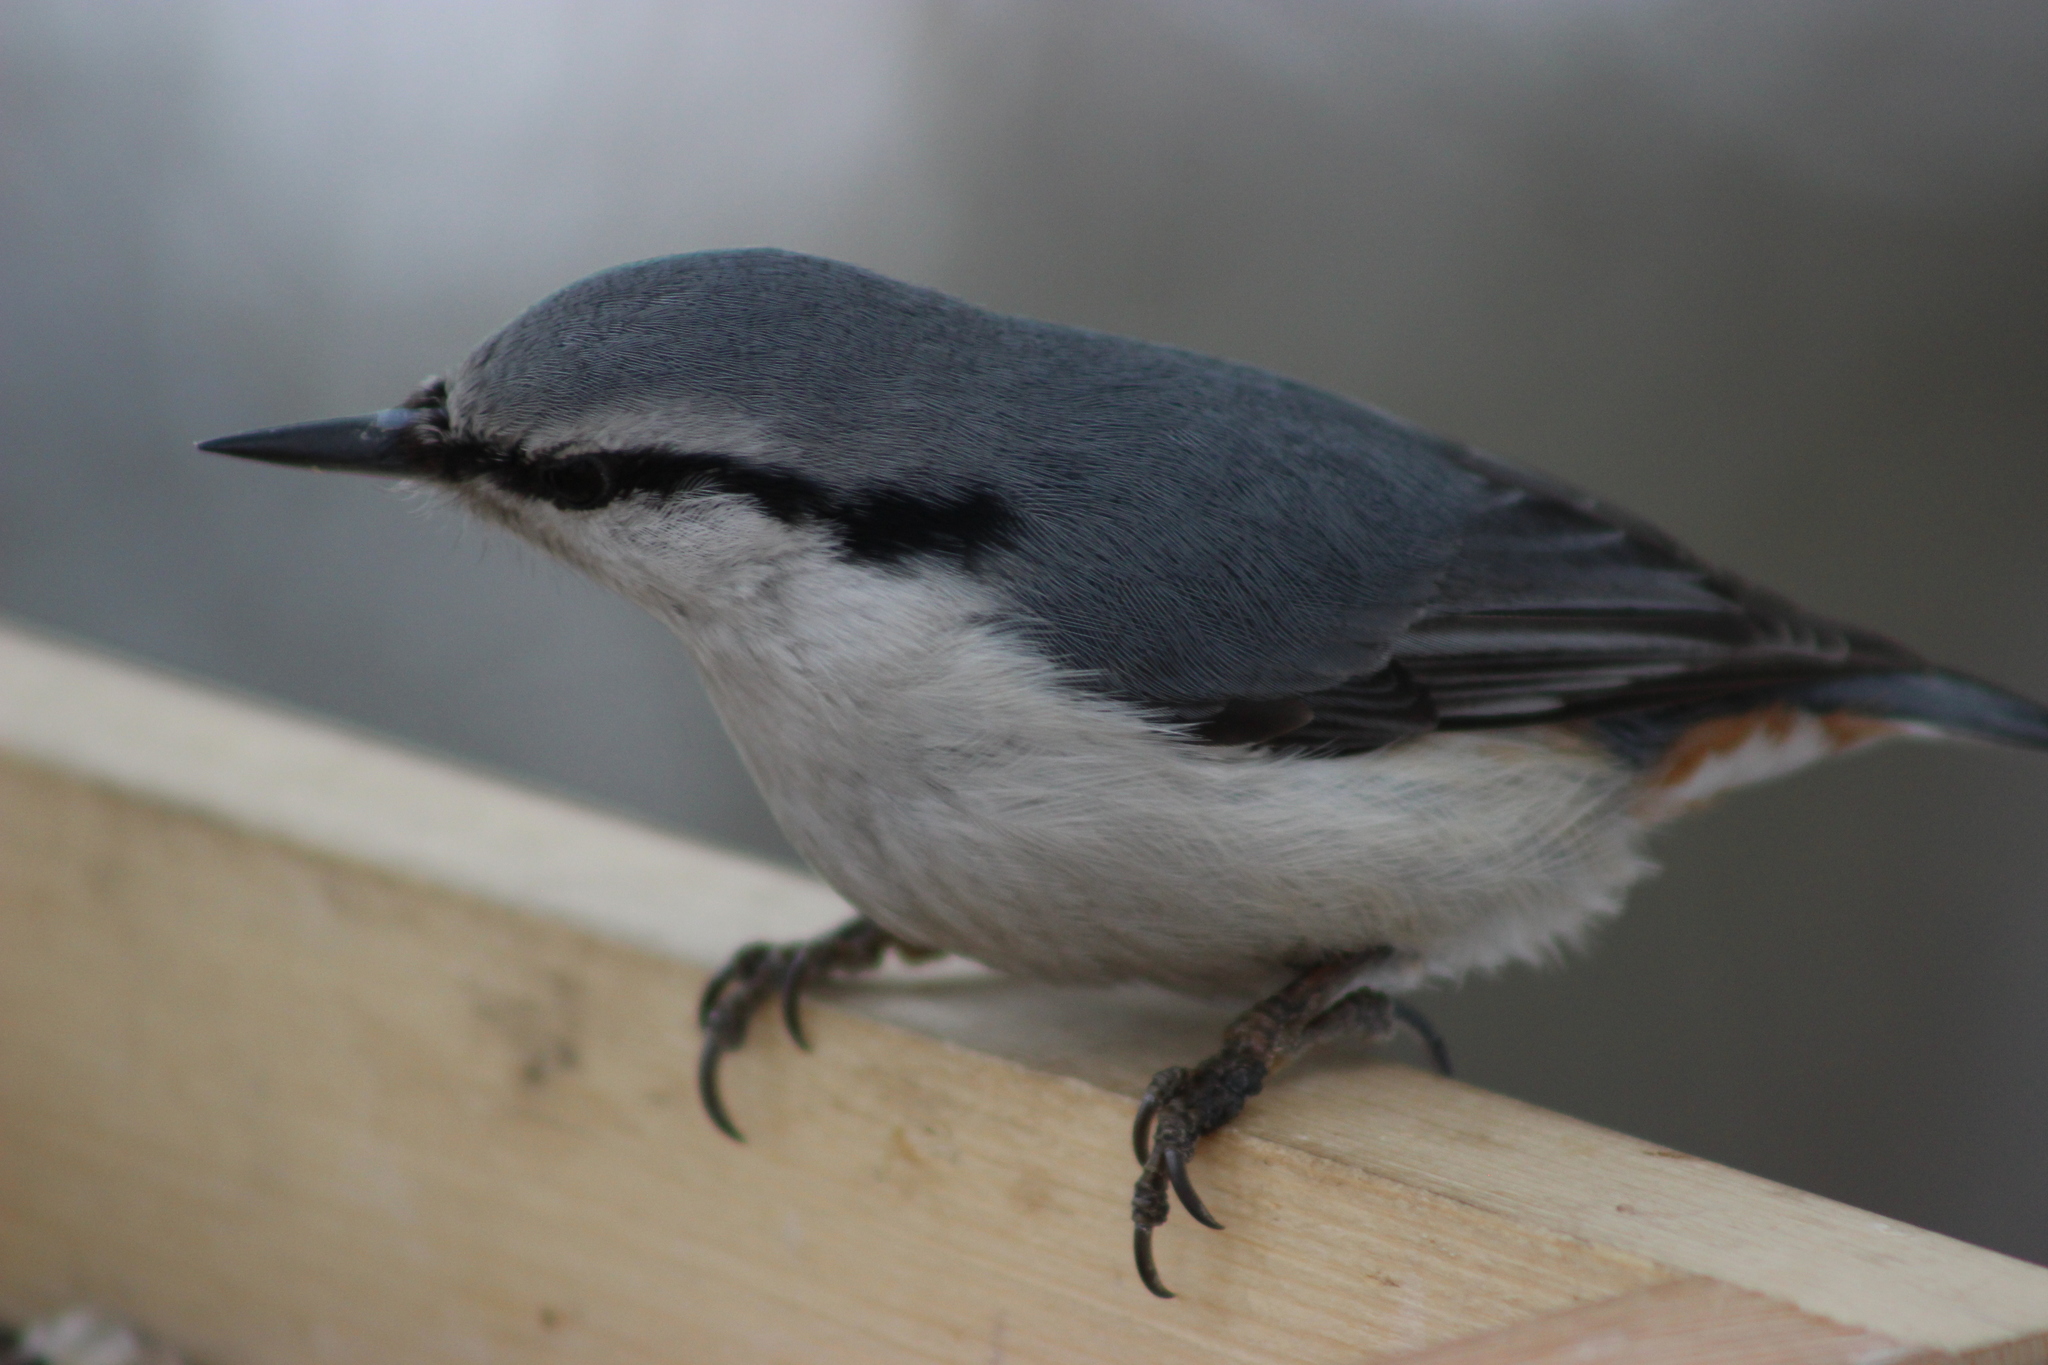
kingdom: Animalia
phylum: Chordata
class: Aves
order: Passeriformes
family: Sittidae
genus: Sitta
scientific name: Sitta europaea
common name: Eurasian nuthatch
